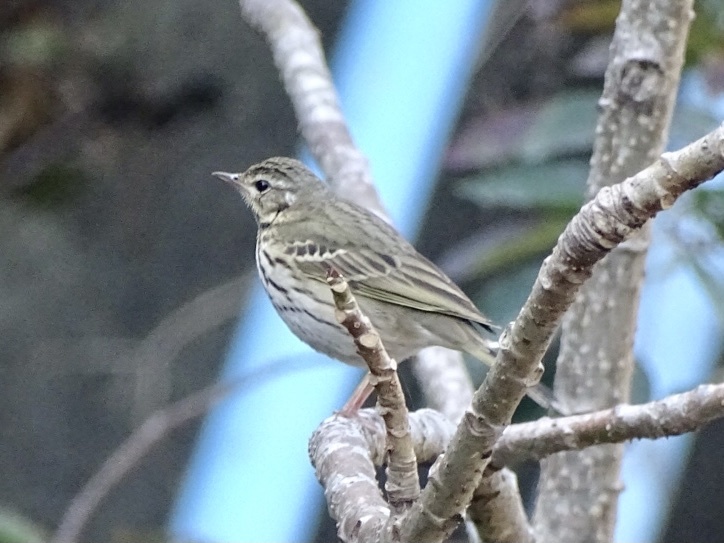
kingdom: Animalia
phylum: Chordata
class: Aves
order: Passeriformes
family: Motacillidae
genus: Anthus
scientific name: Anthus hodgsoni
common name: Olive-backed pipit
